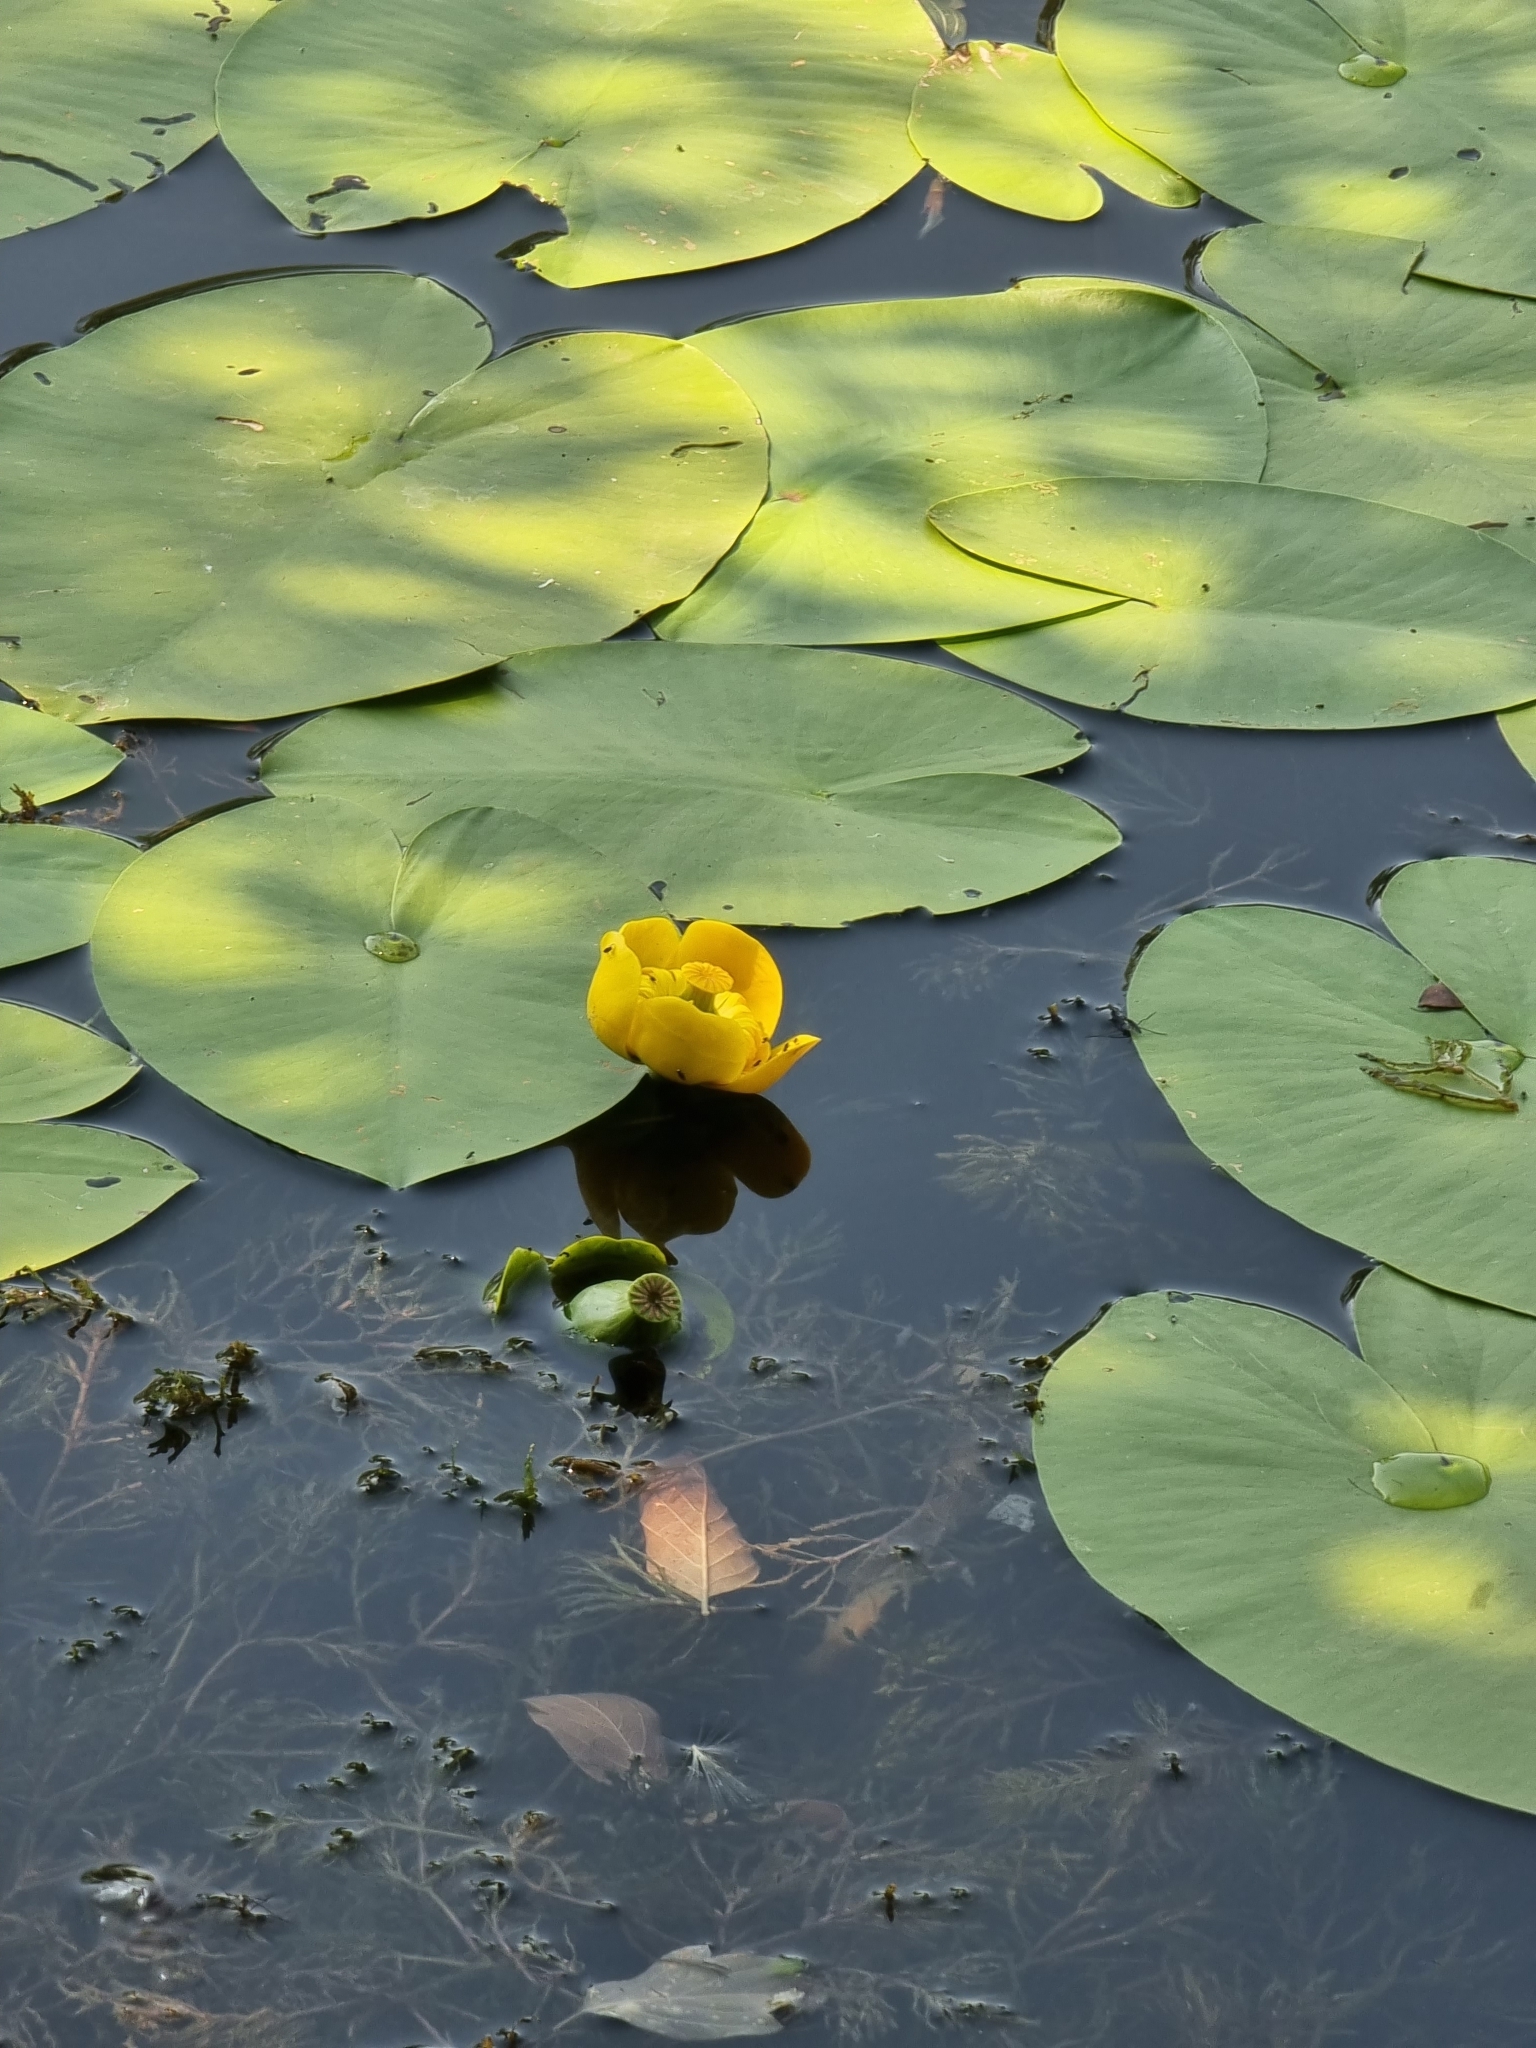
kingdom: Plantae
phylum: Tracheophyta
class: Magnoliopsida
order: Nymphaeales
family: Nymphaeaceae
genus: Nuphar
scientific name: Nuphar lutea
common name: Yellow water-lily
